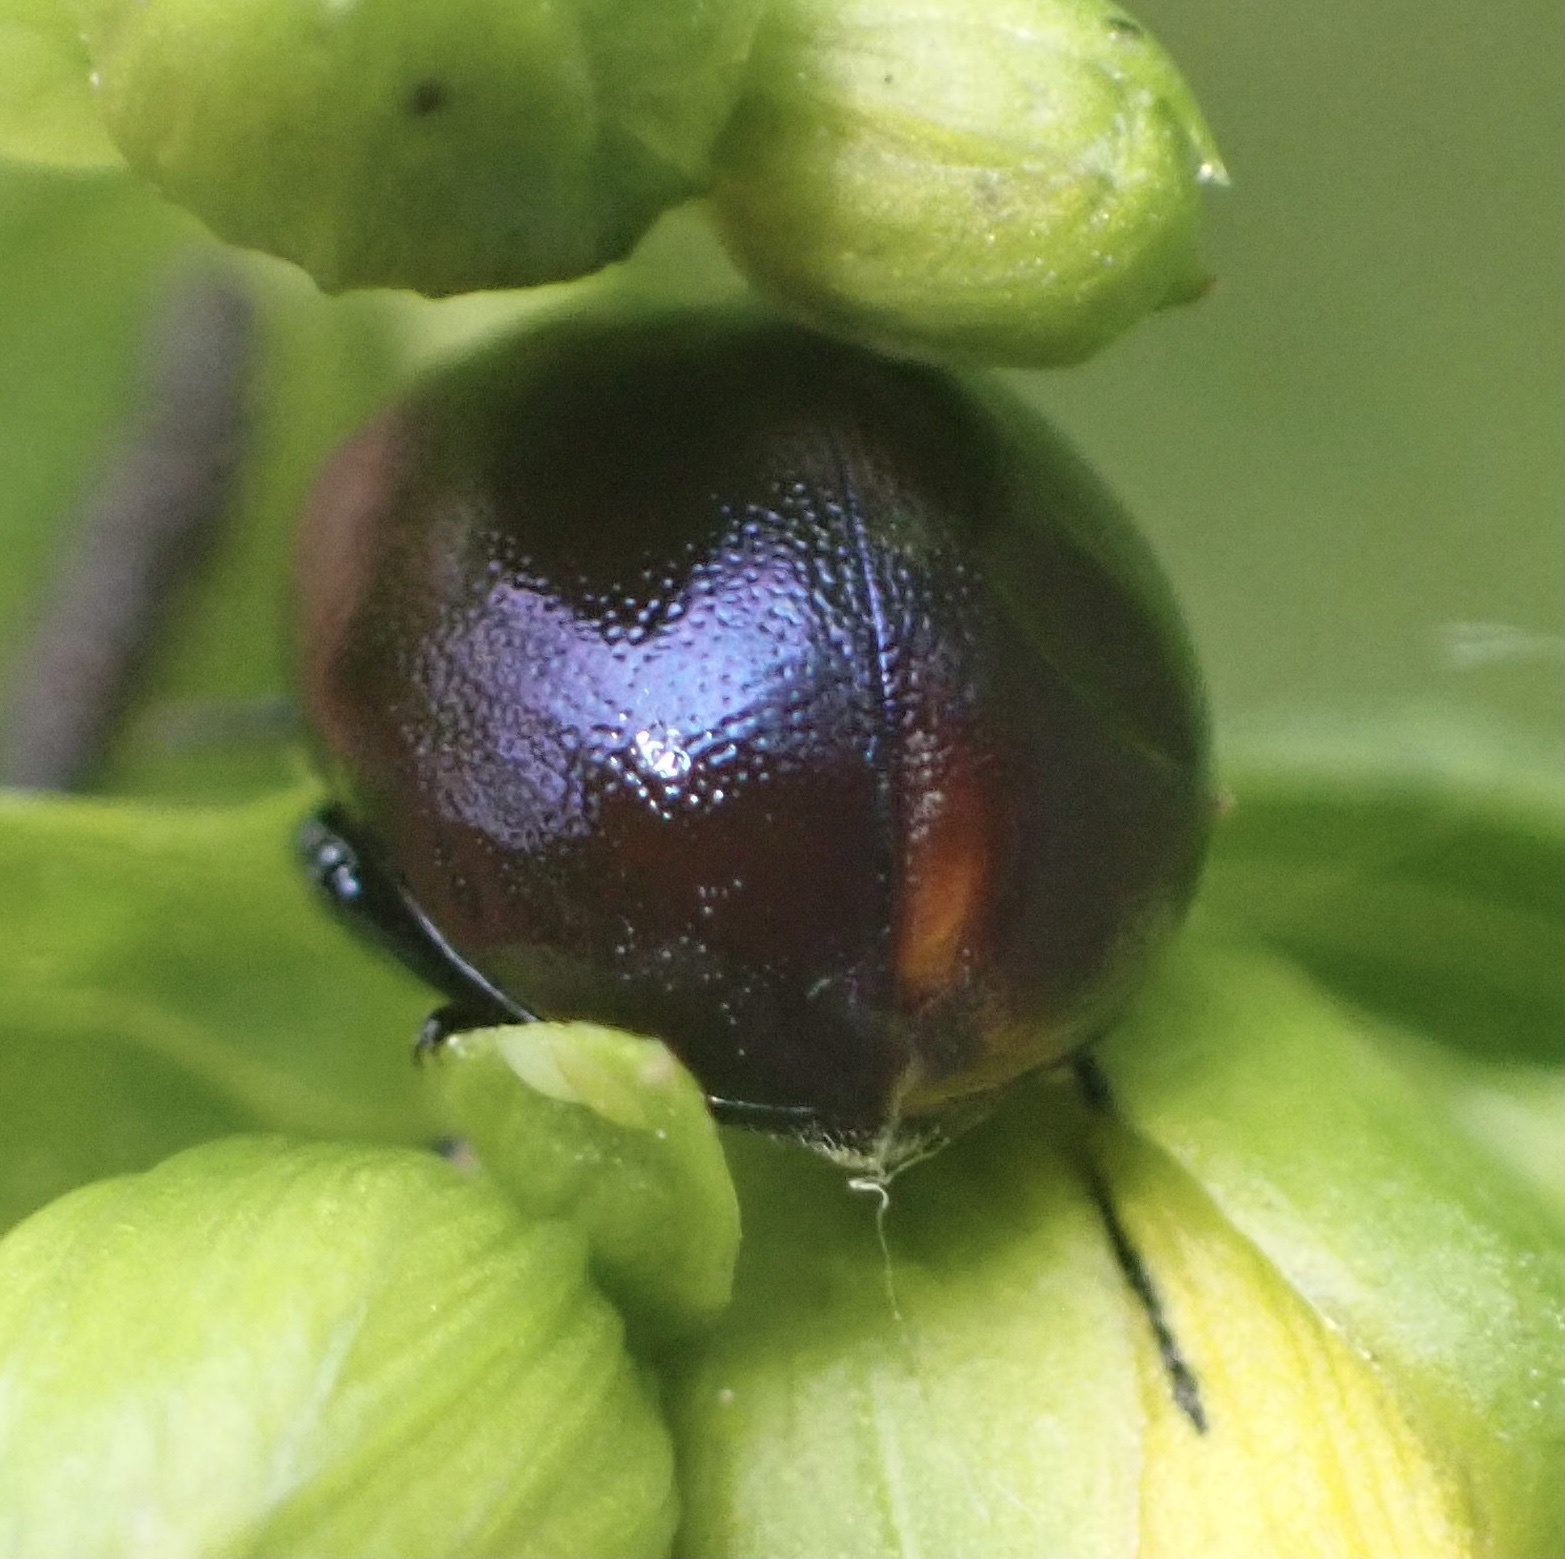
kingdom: Animalia
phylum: Arthropoda
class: Insecta
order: Coleoptera
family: Chrysomelidae
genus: Chrysolina
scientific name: Chrysolina varians
